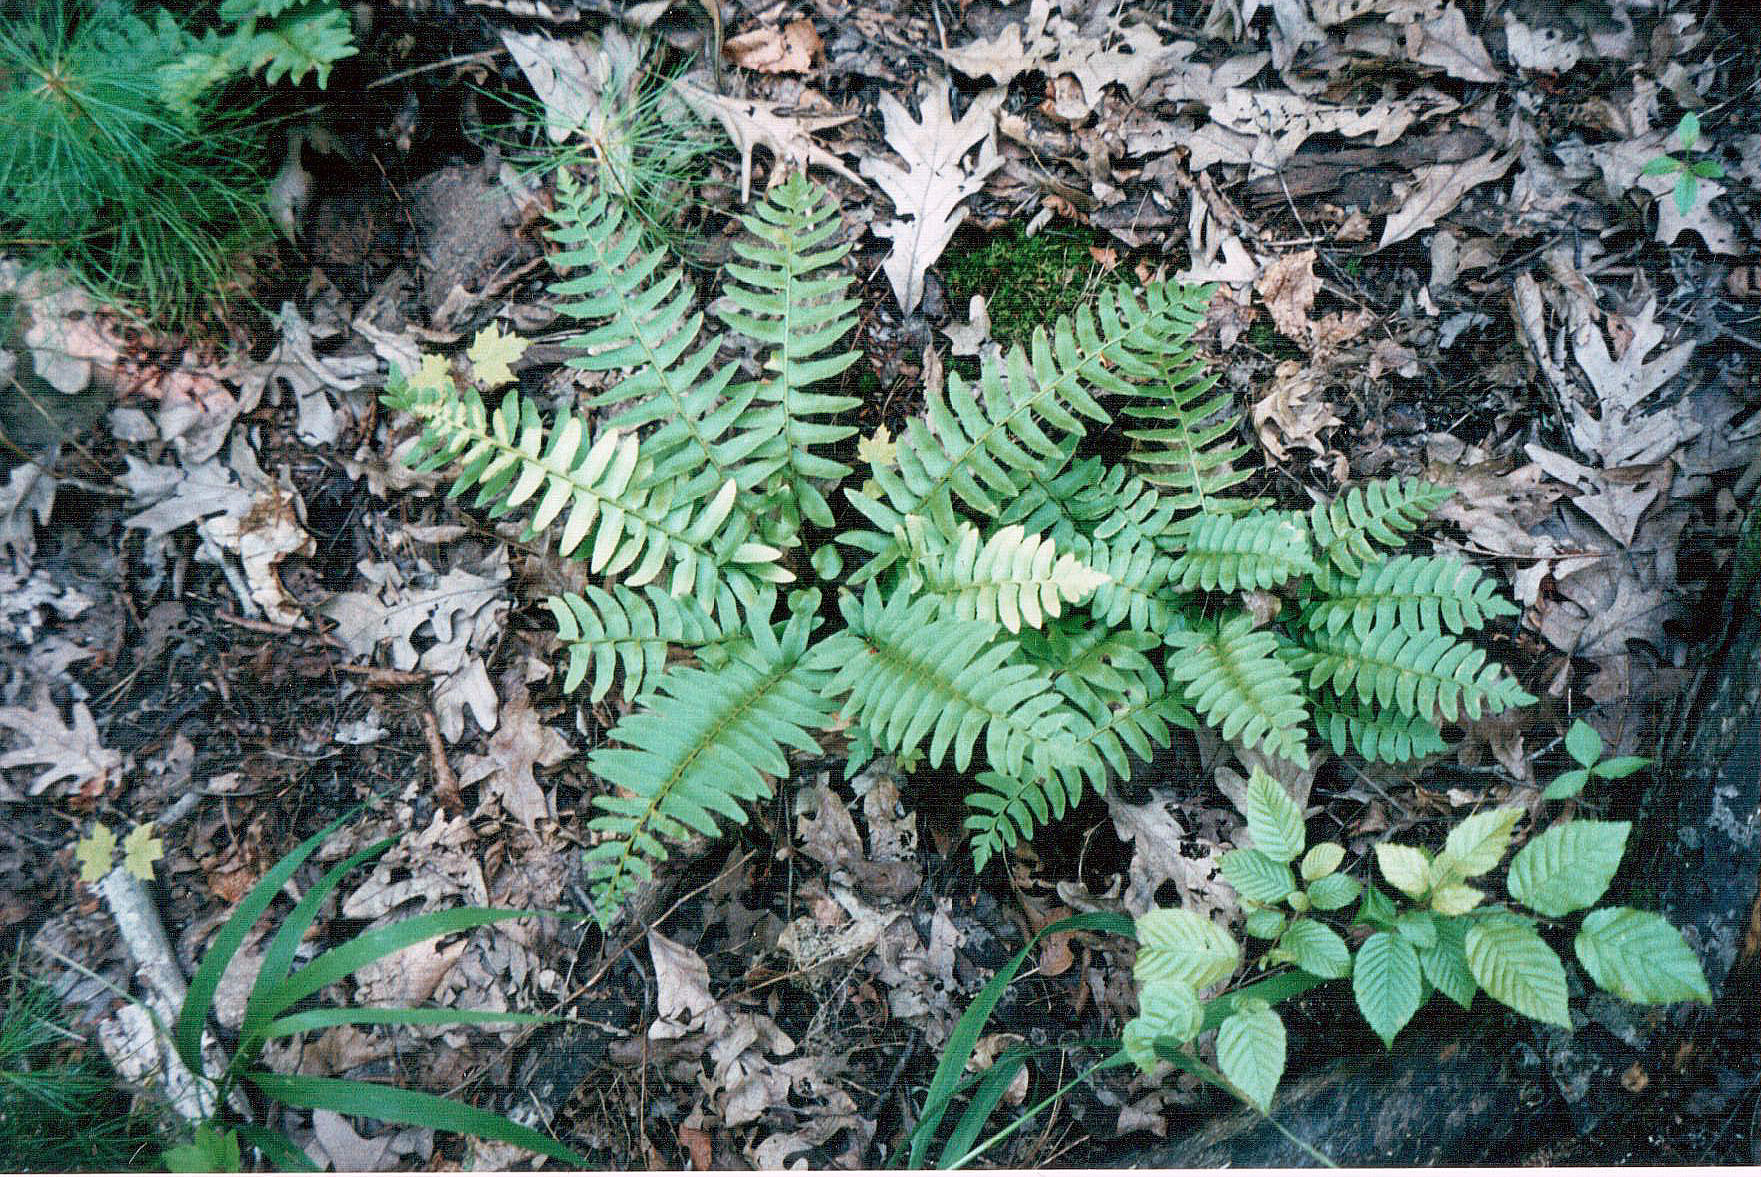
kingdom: Plantae
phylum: Tracheophyta
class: Polypodiopsida
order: Polypodiales
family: Dryopteridaceae
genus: Polystichum
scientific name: Polystichum acrostichoides
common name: Christmas fern
